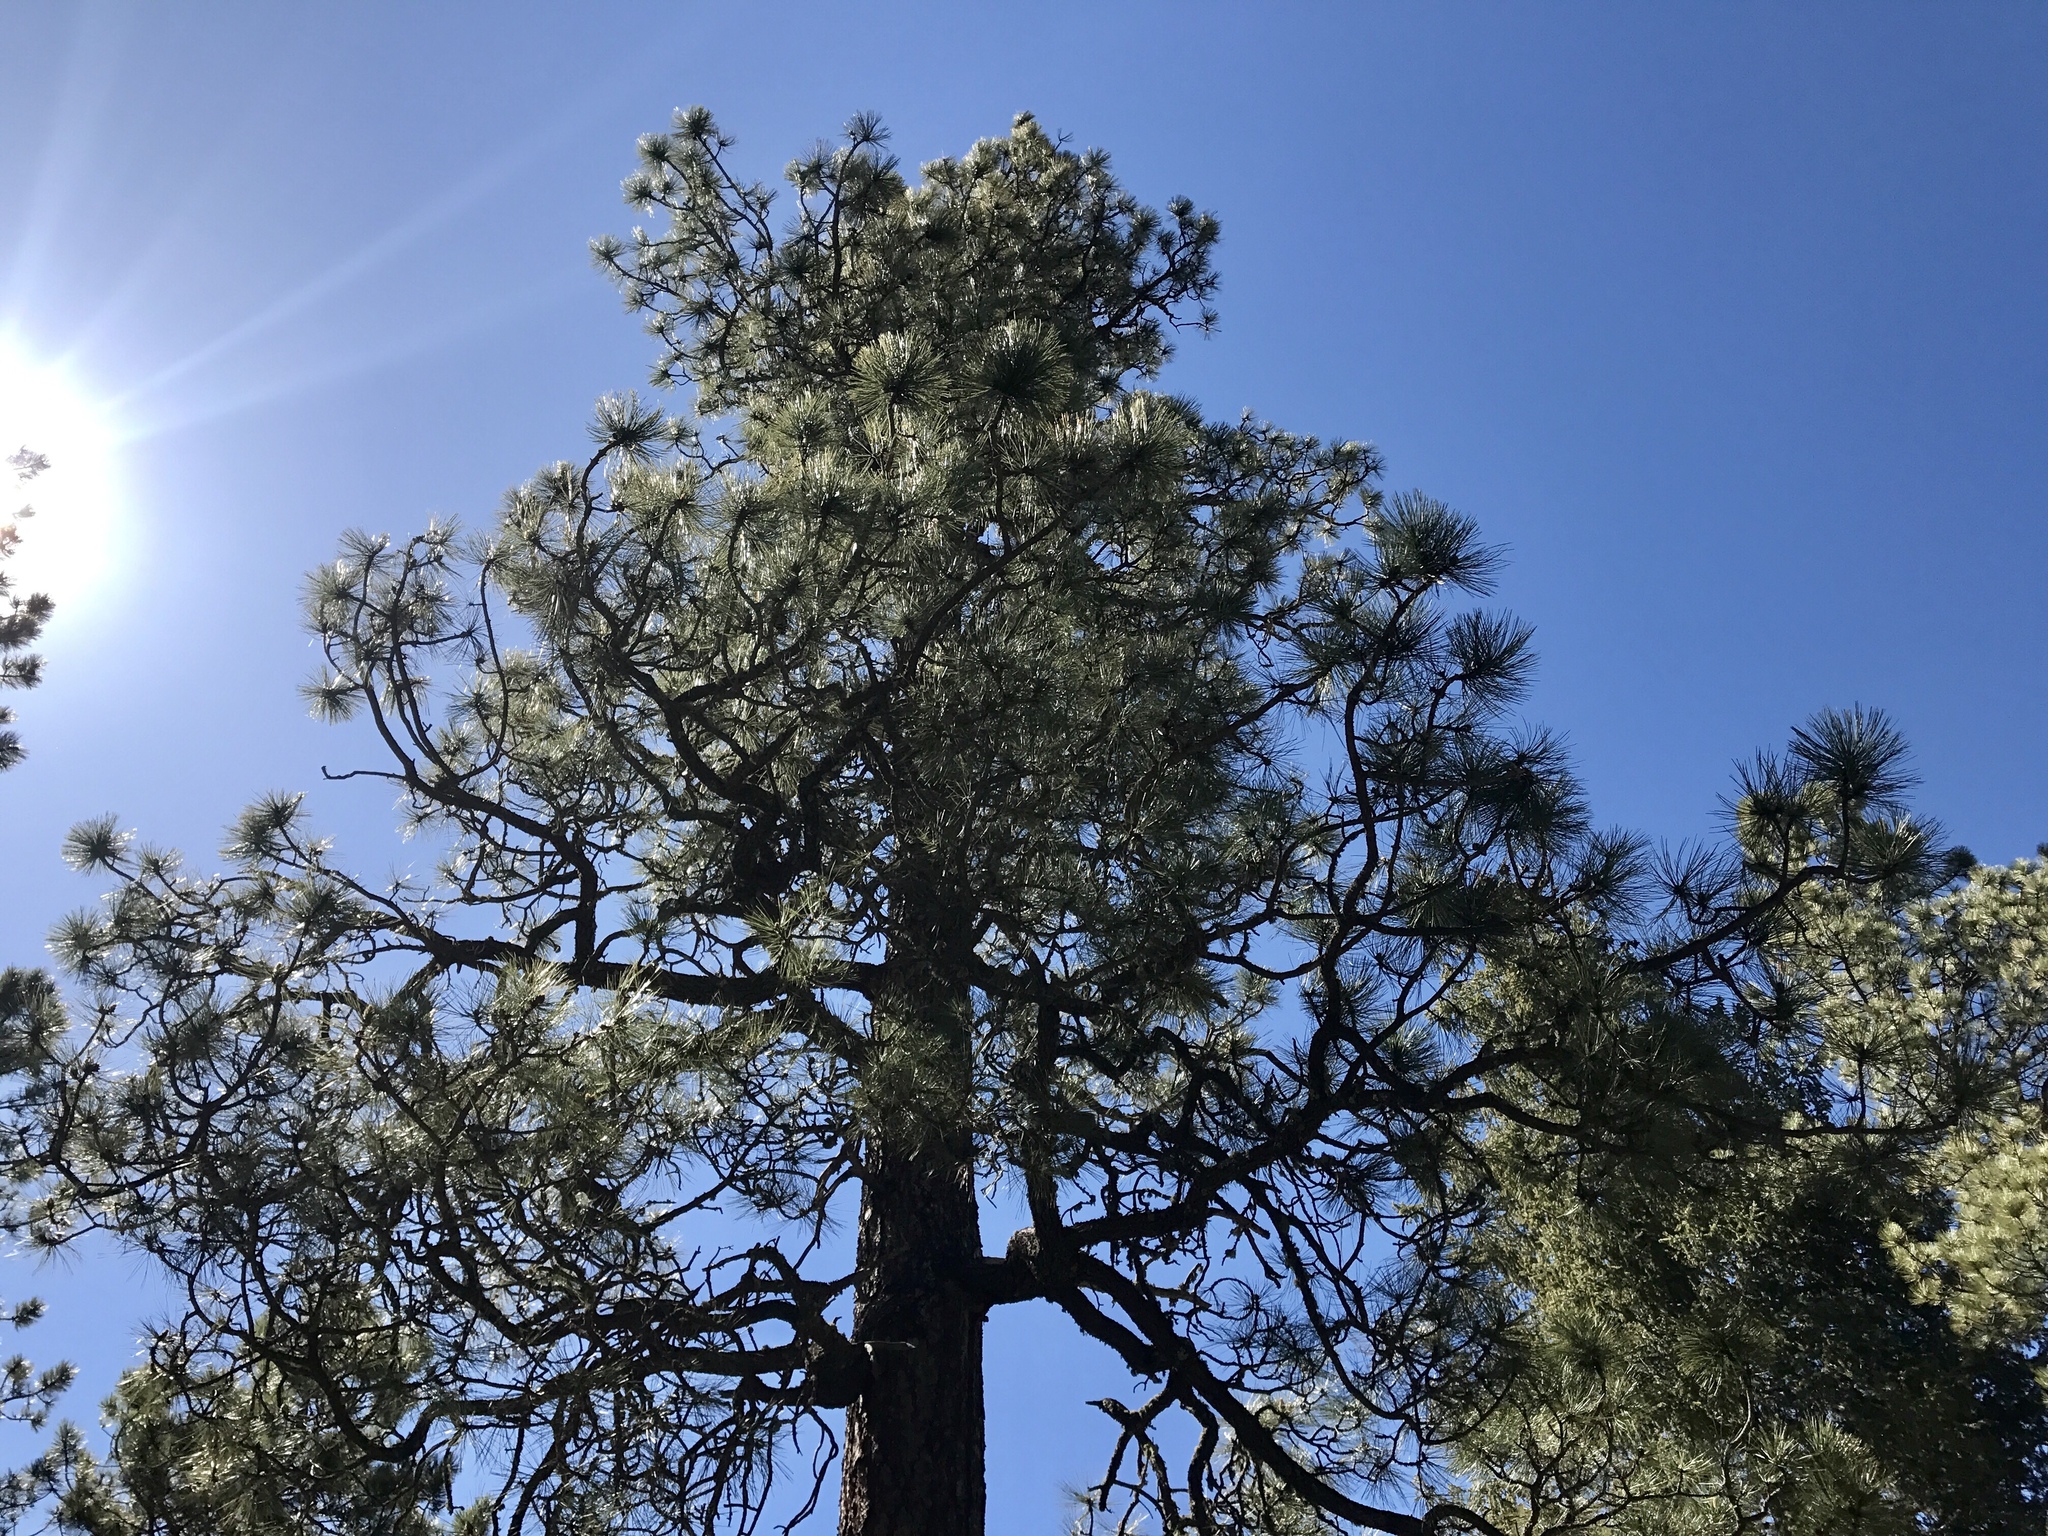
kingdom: Plantae
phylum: Tracheophyta
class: Pinopsida
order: Pinales
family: Pinaceae
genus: Pinus
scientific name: Pinus ponderosa
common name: Western yellow-pine
